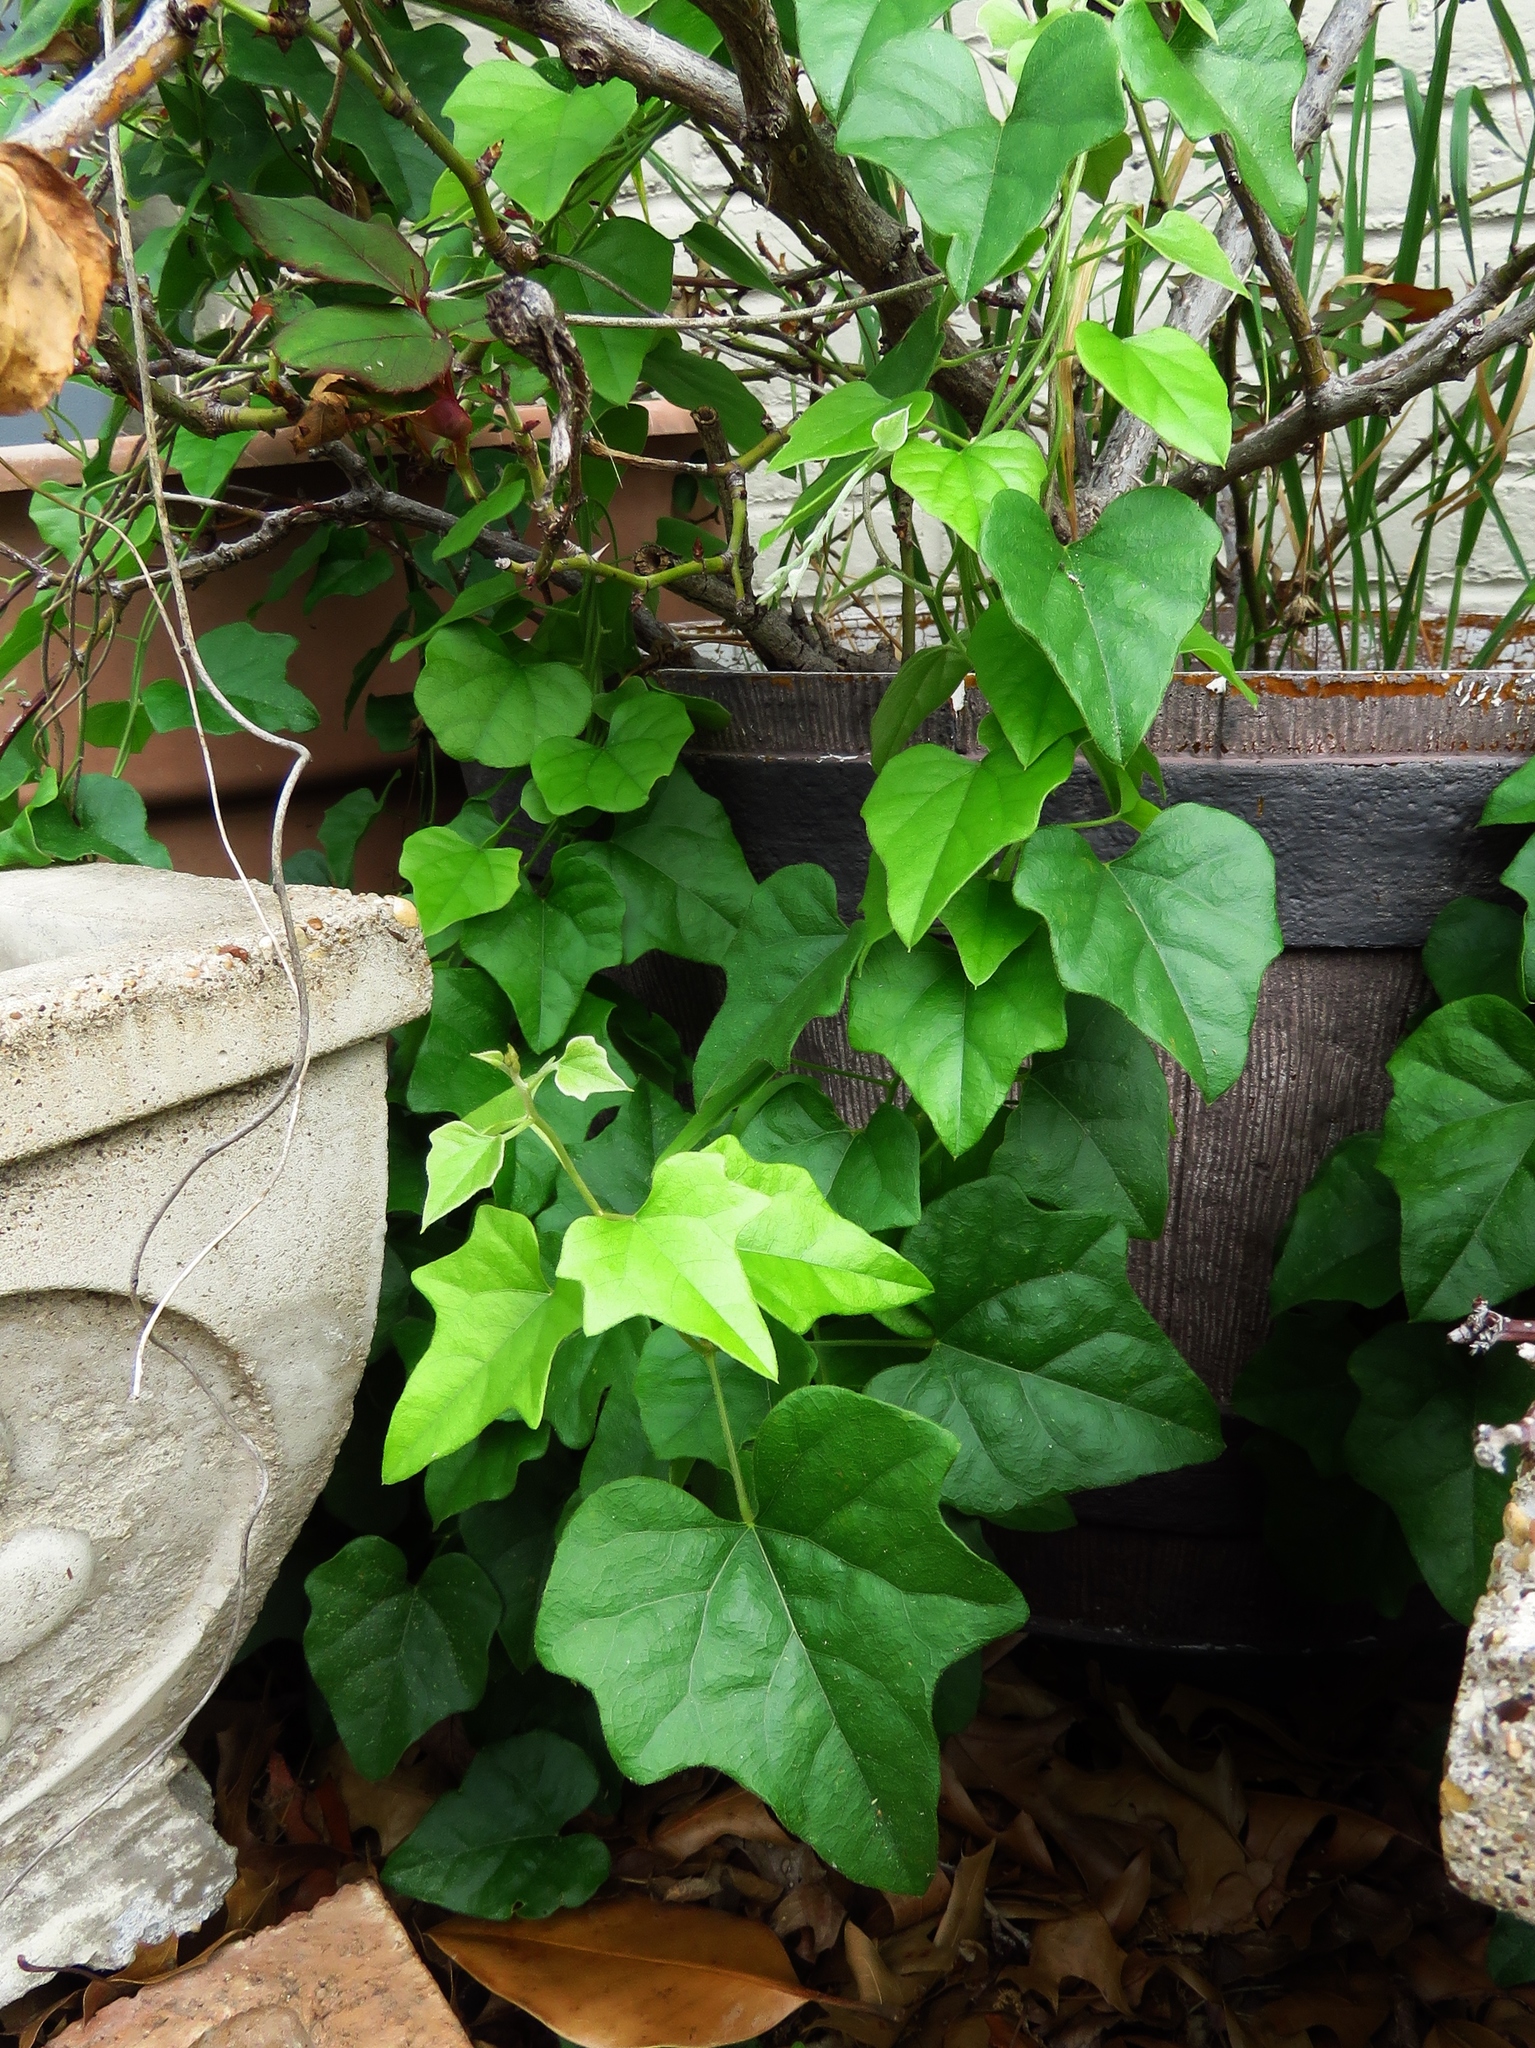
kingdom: Plantae
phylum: Tracheophyta
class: Magnoliopsida
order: Ranunculales
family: Menispermaceae
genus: Cocculus
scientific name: Cocculus carolinus
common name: Carolina moonseed
